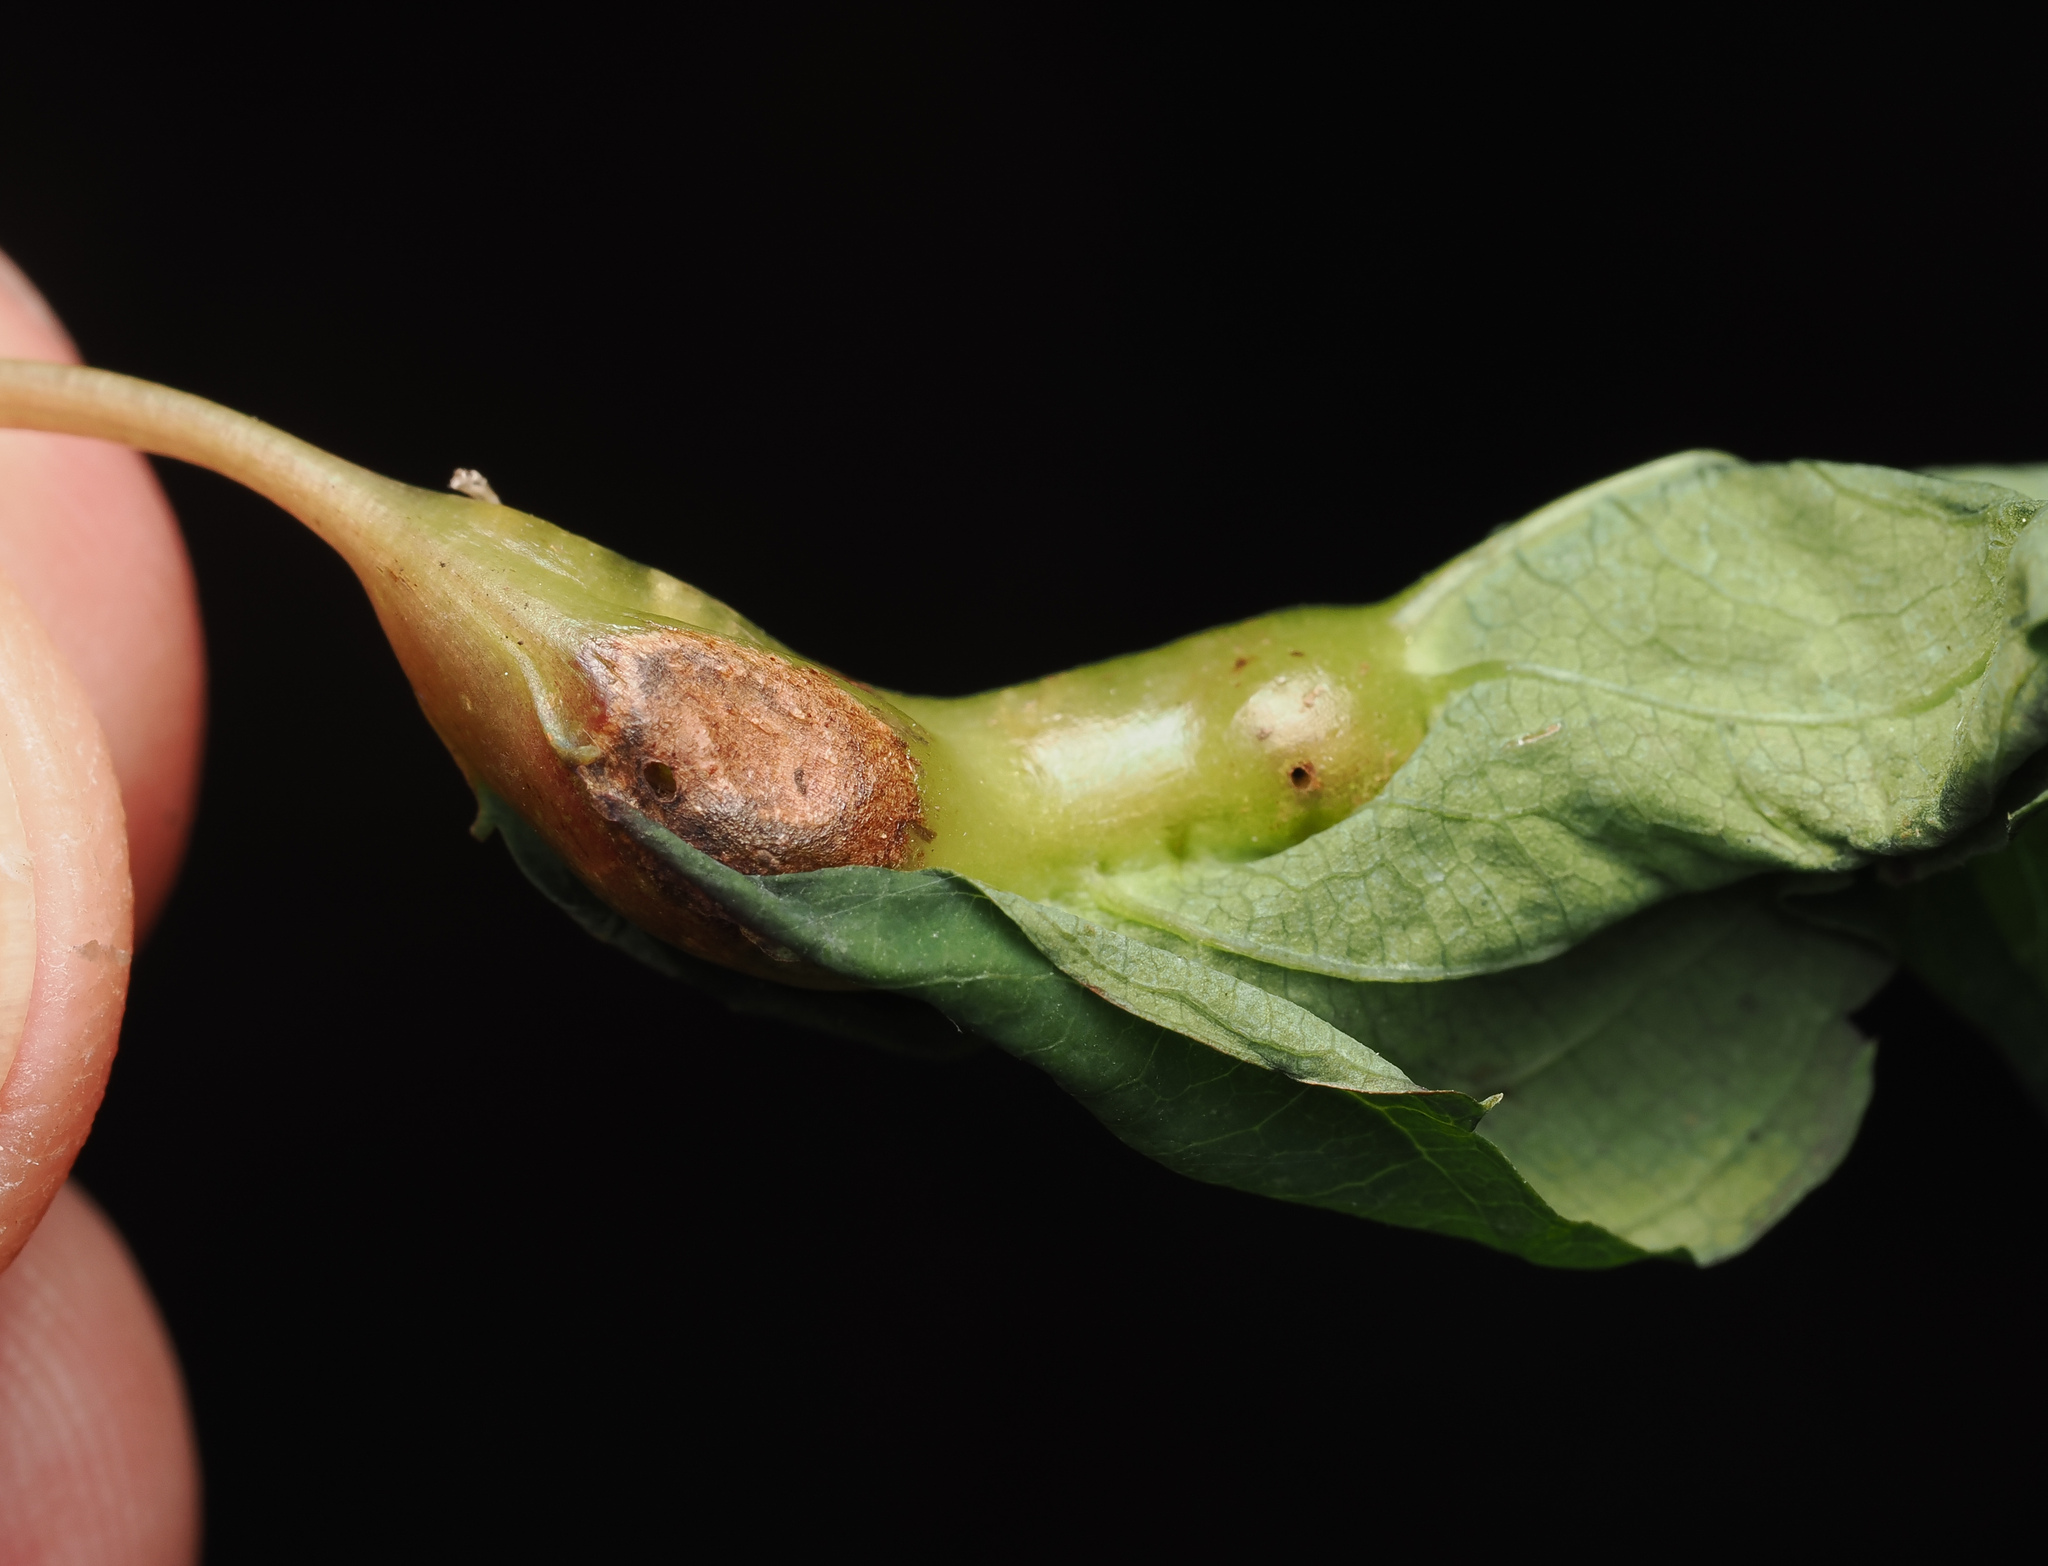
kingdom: Animalia
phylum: Arthropoda
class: Insecta
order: Diptera
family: Cecidomyiidae
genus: Neolasioptera
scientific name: Neolasioptera impatientifolia
